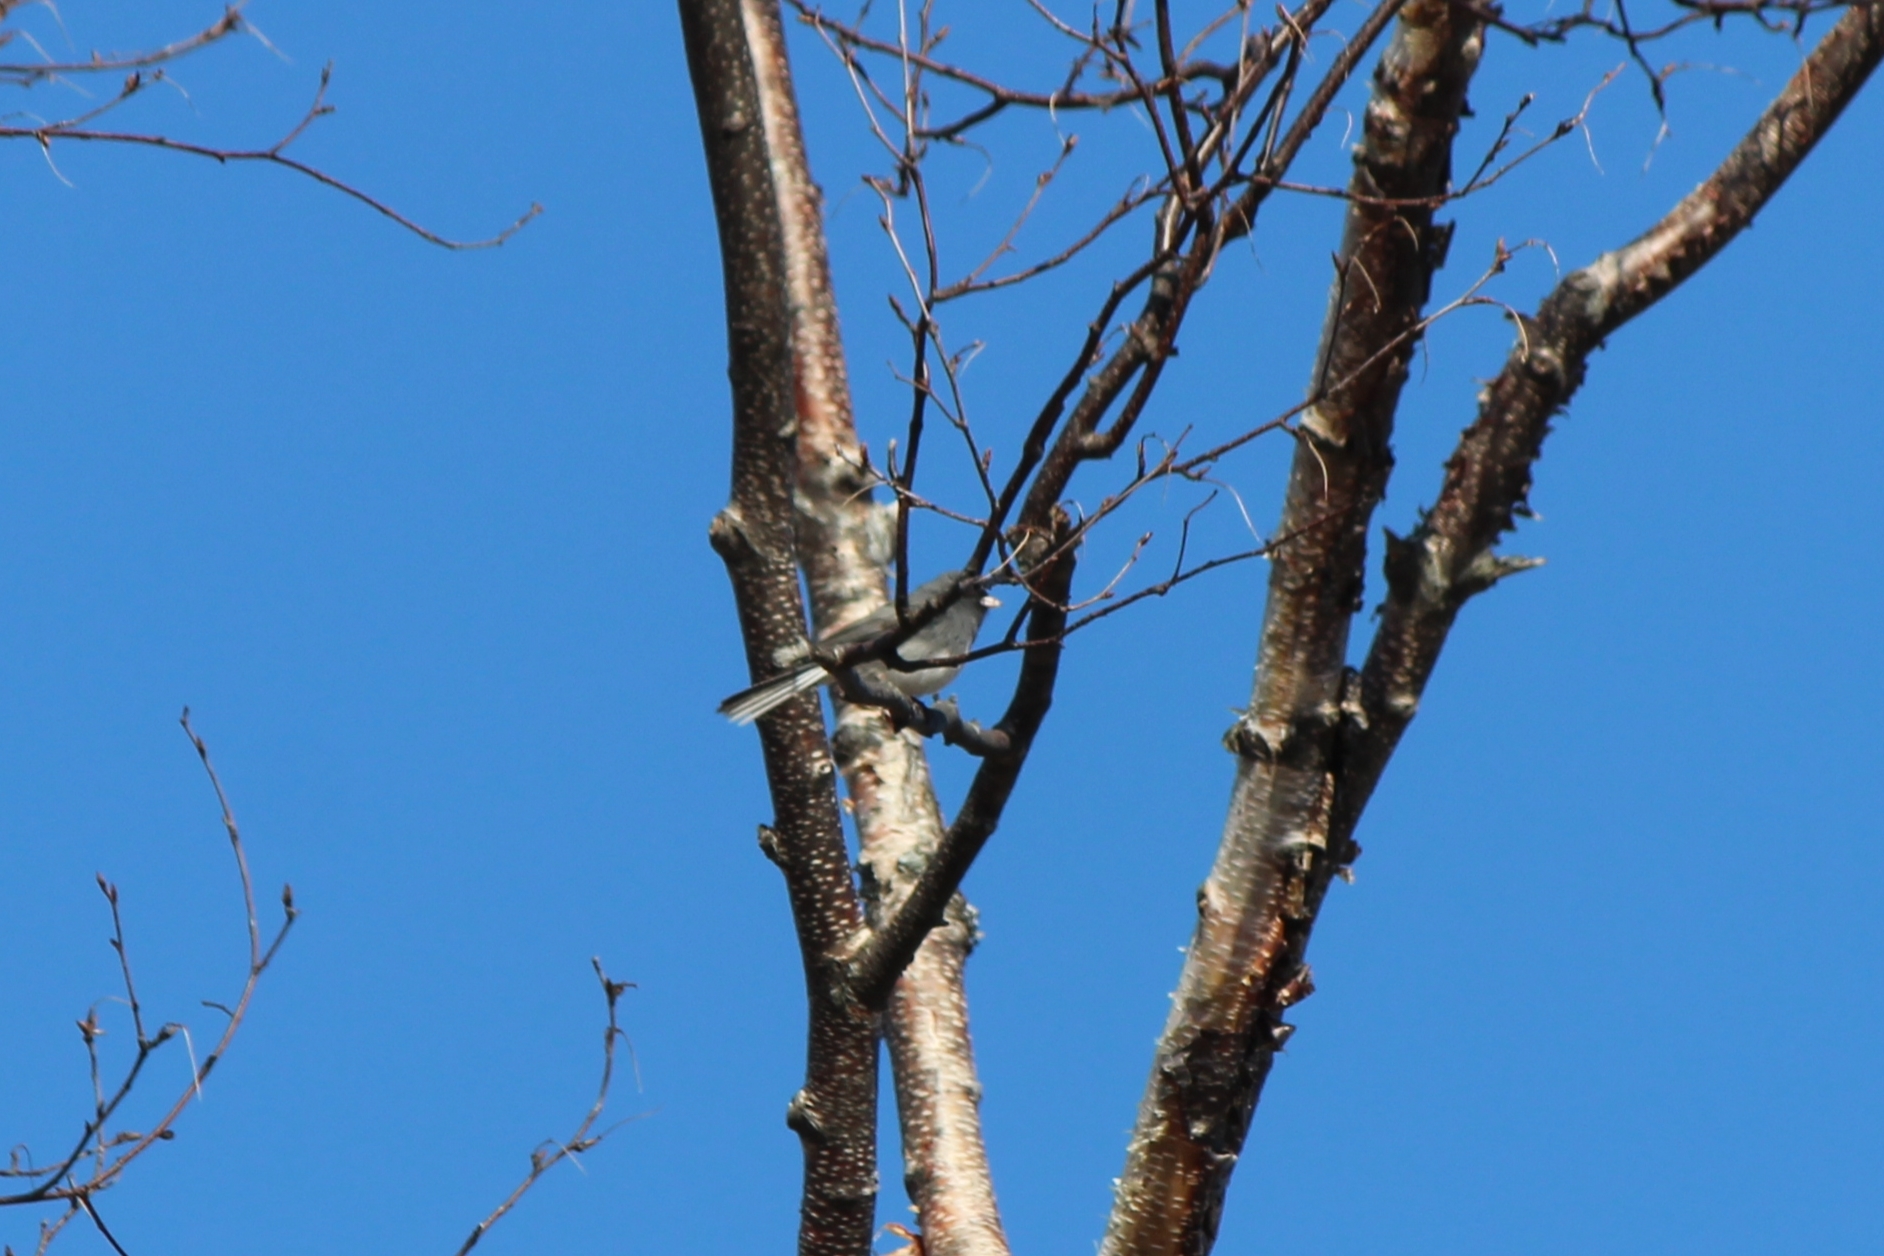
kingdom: Animalia
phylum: Chordata
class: Aves
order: Passeriformes
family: Passerellidae
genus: Junco
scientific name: Junco hyemalis
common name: Dark-eyed junco
